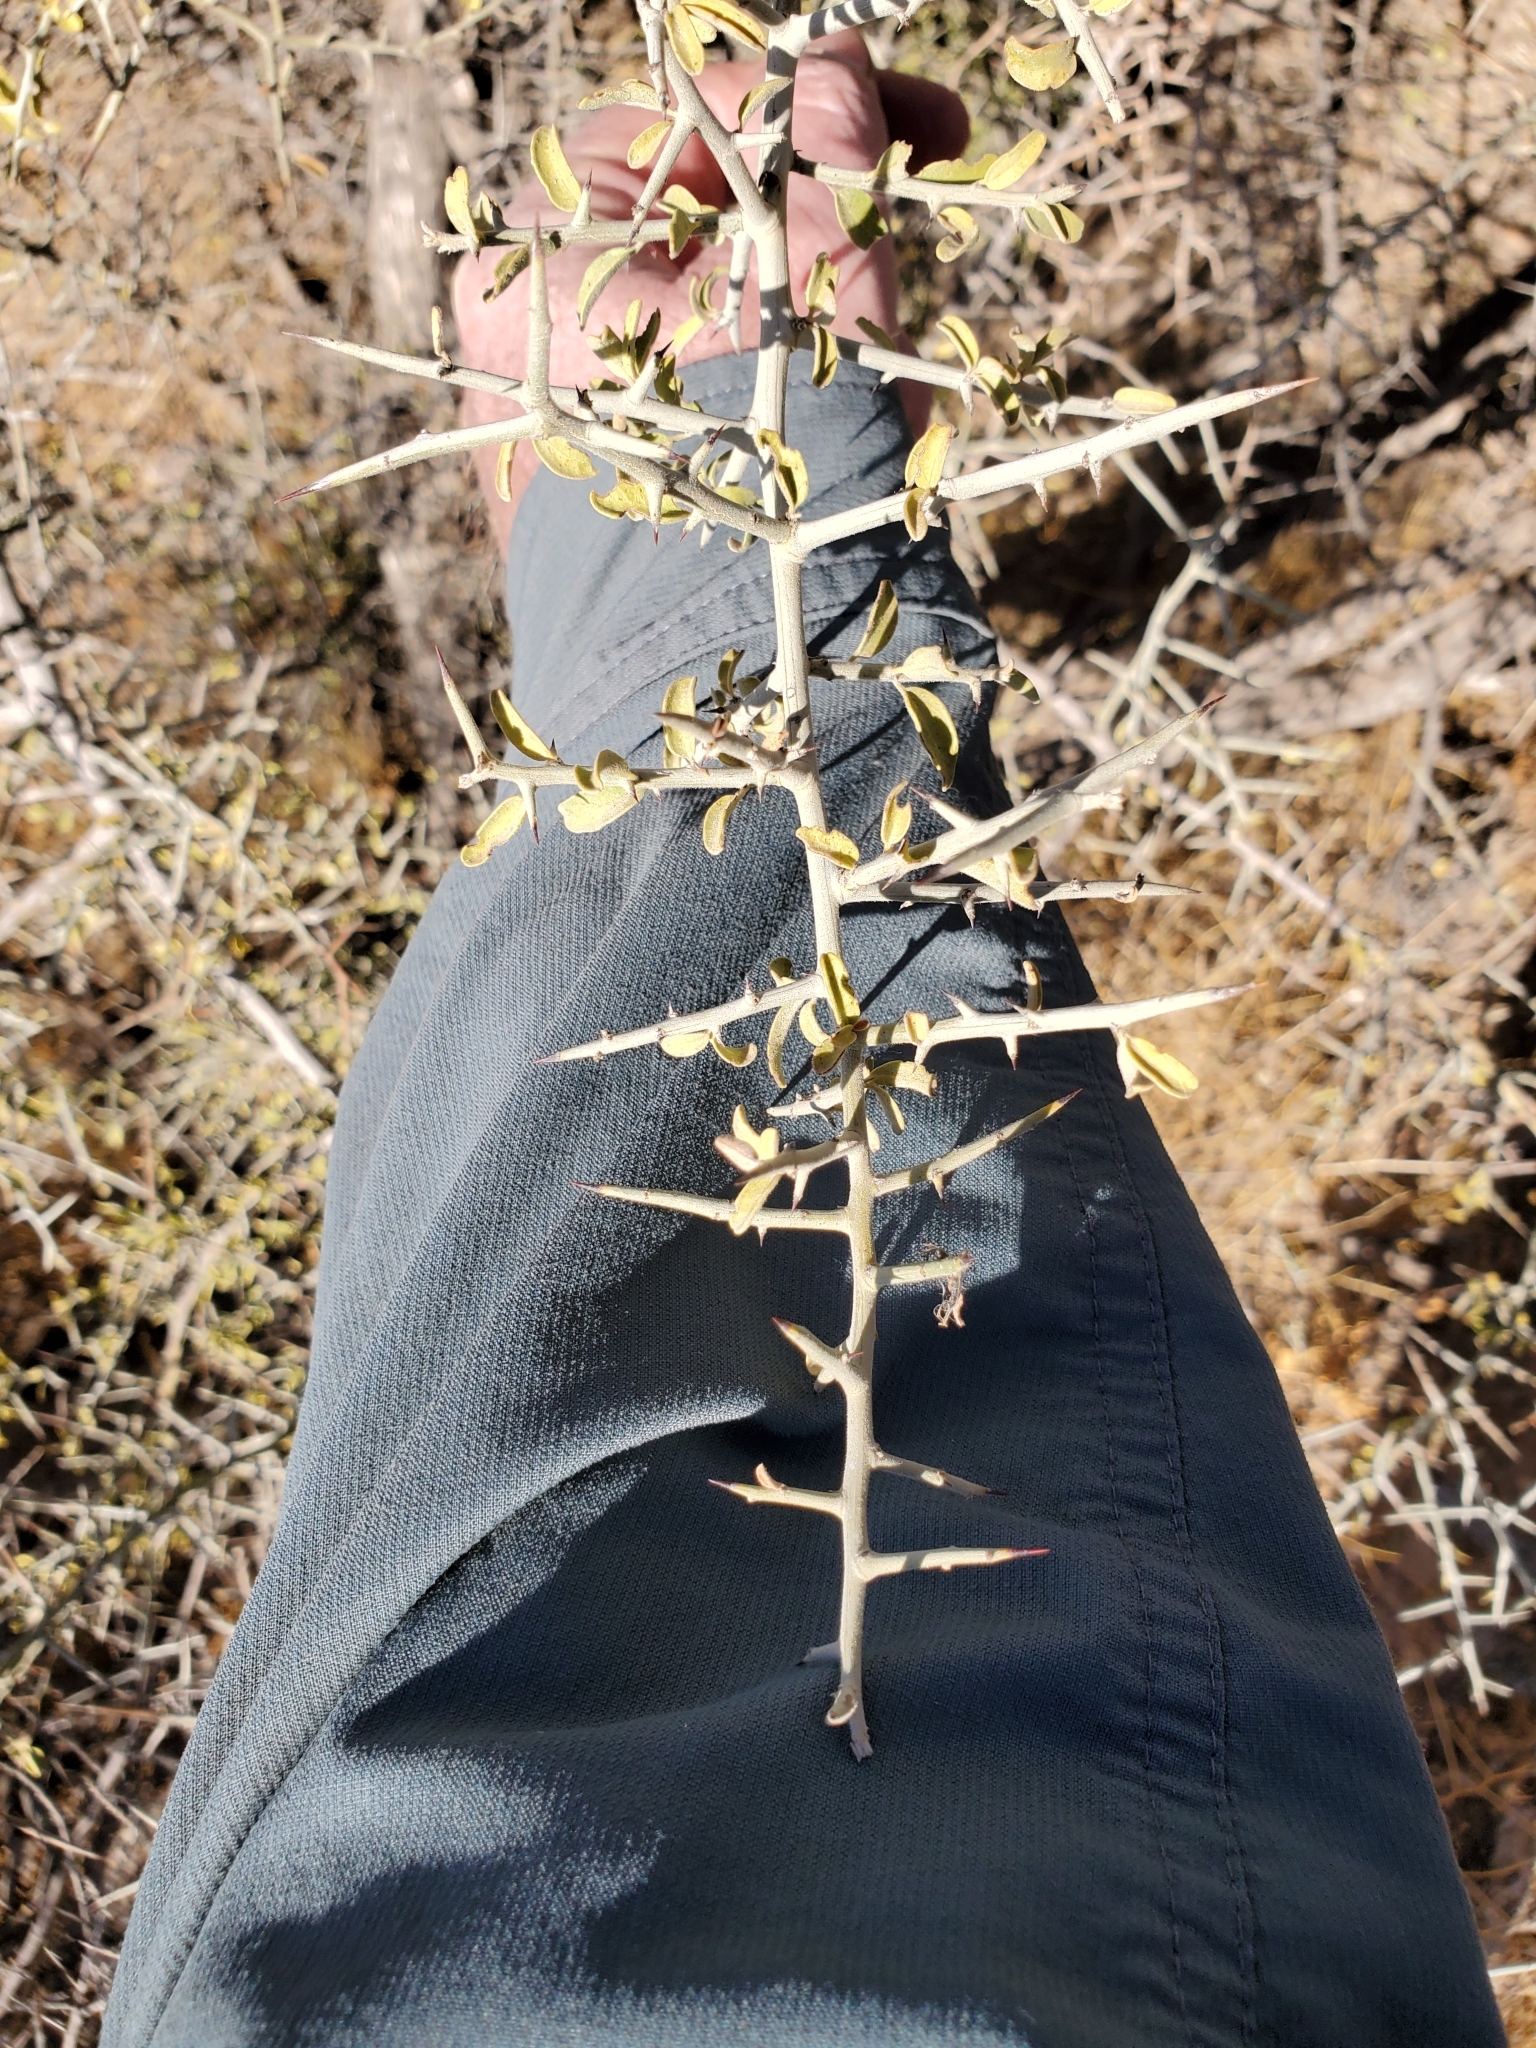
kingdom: Plantae
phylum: Tracheophyta
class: Magnoliopsida
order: Rosales
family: Rhamnaceae
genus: Sarcomphalus
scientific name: Sarcomphalus obtusifolius
